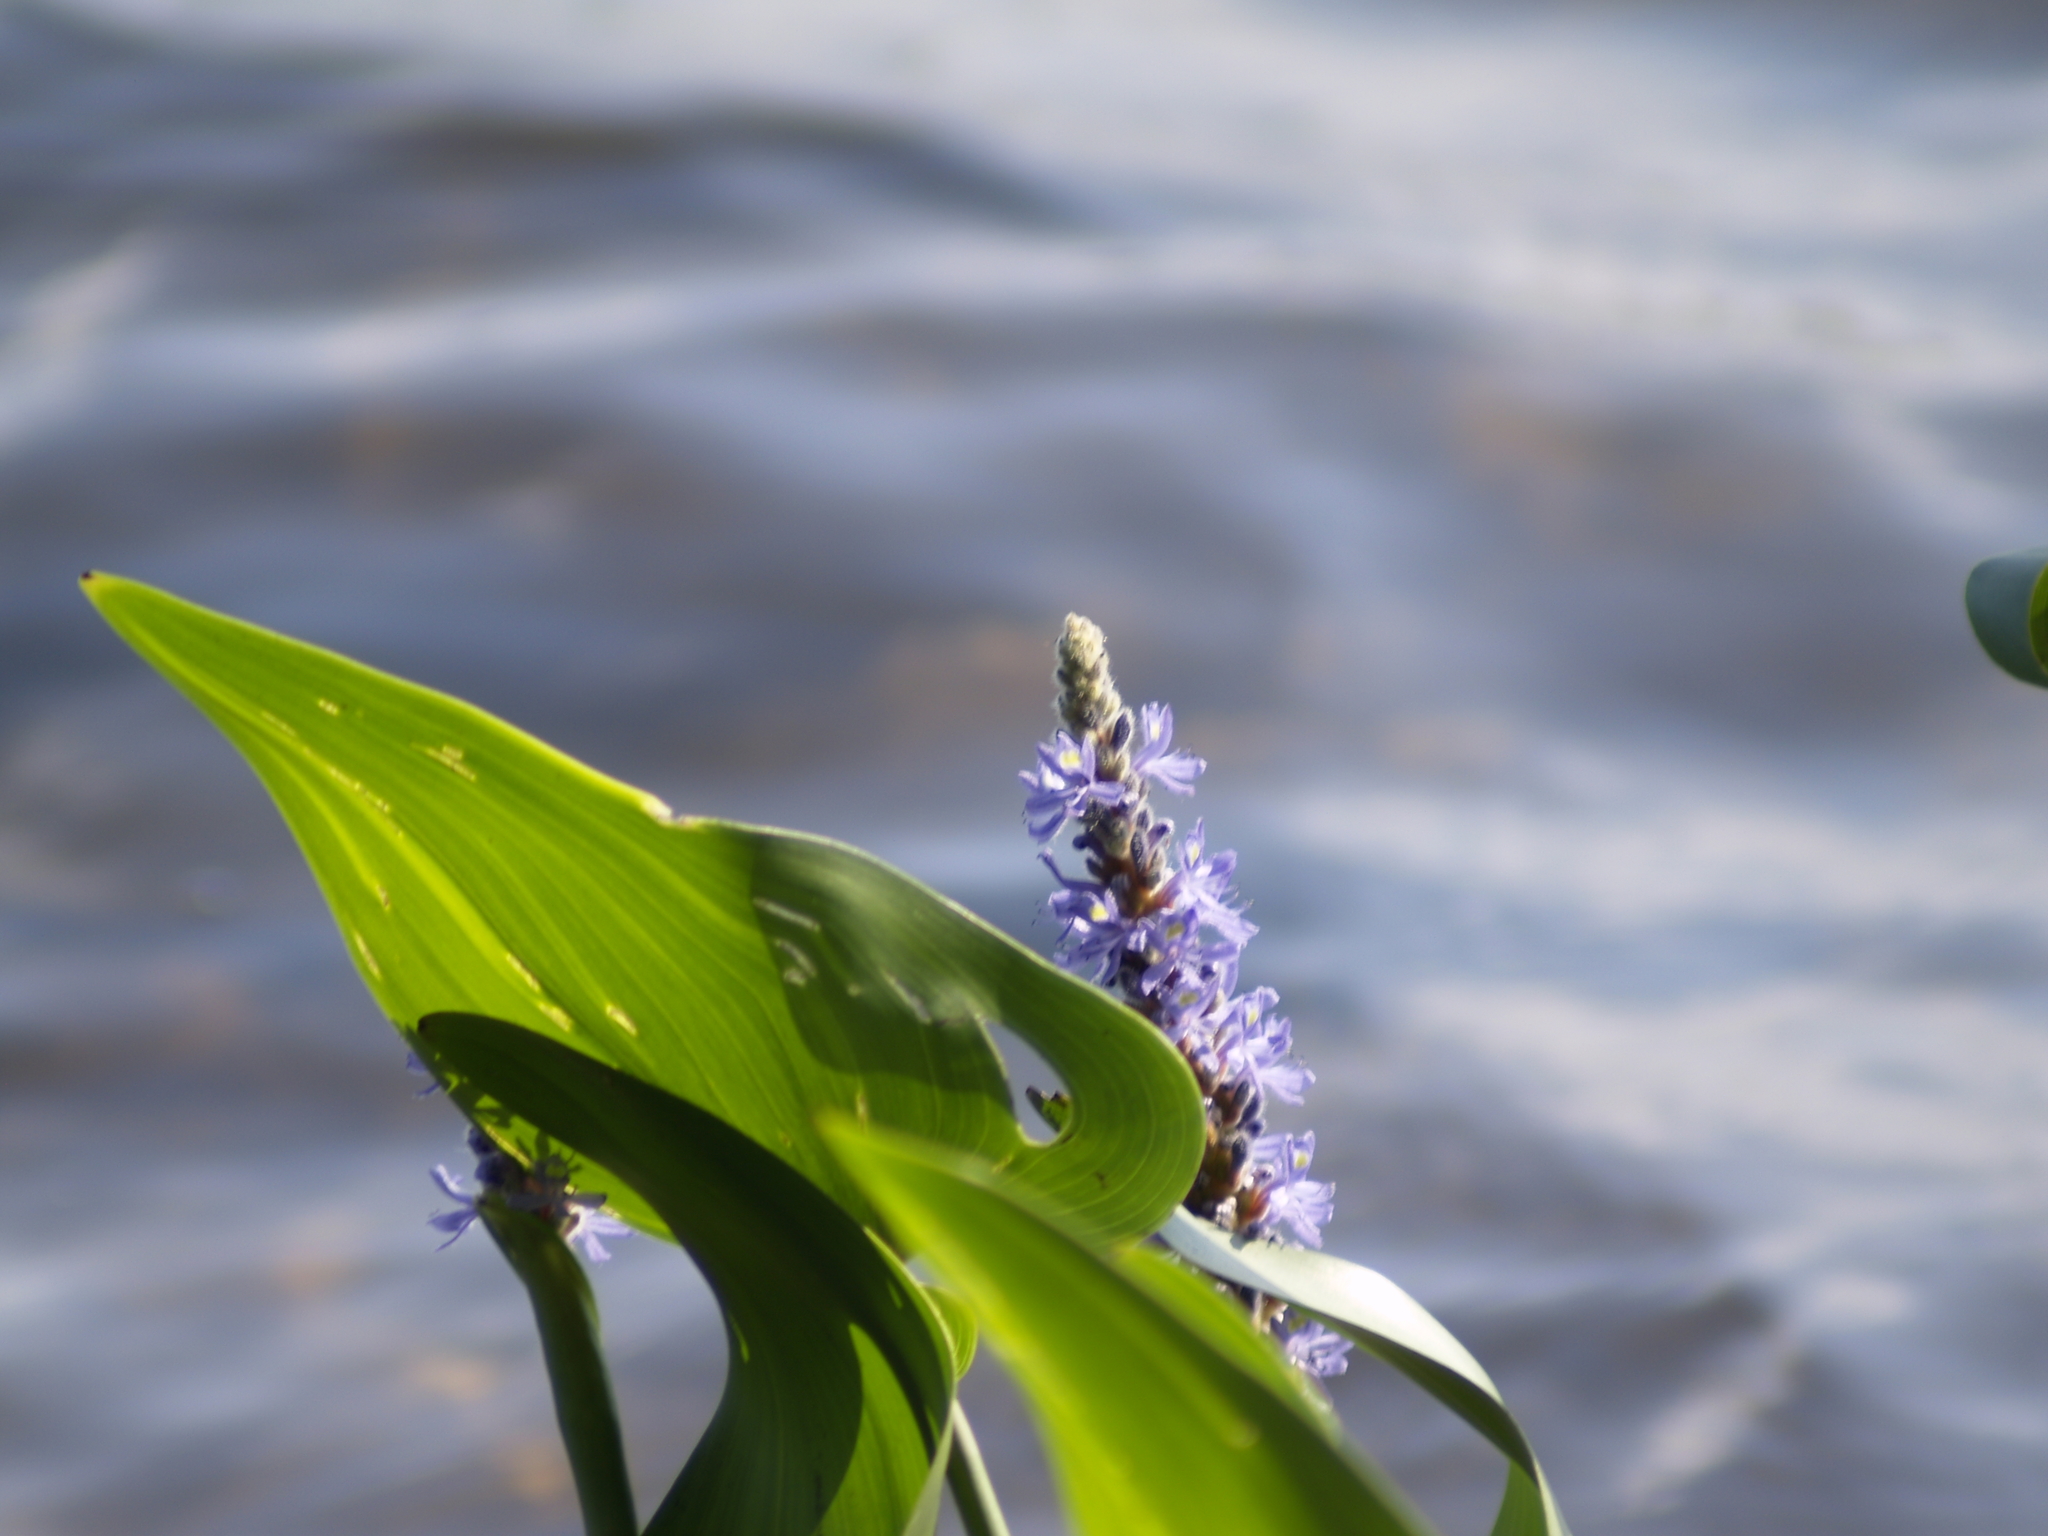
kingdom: Plantae
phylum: Tracheophyta
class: Liliopsida
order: Commelinales
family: Pontederiaceae
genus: Pontederia
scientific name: Pontederia cordata
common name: Pickerelweed
